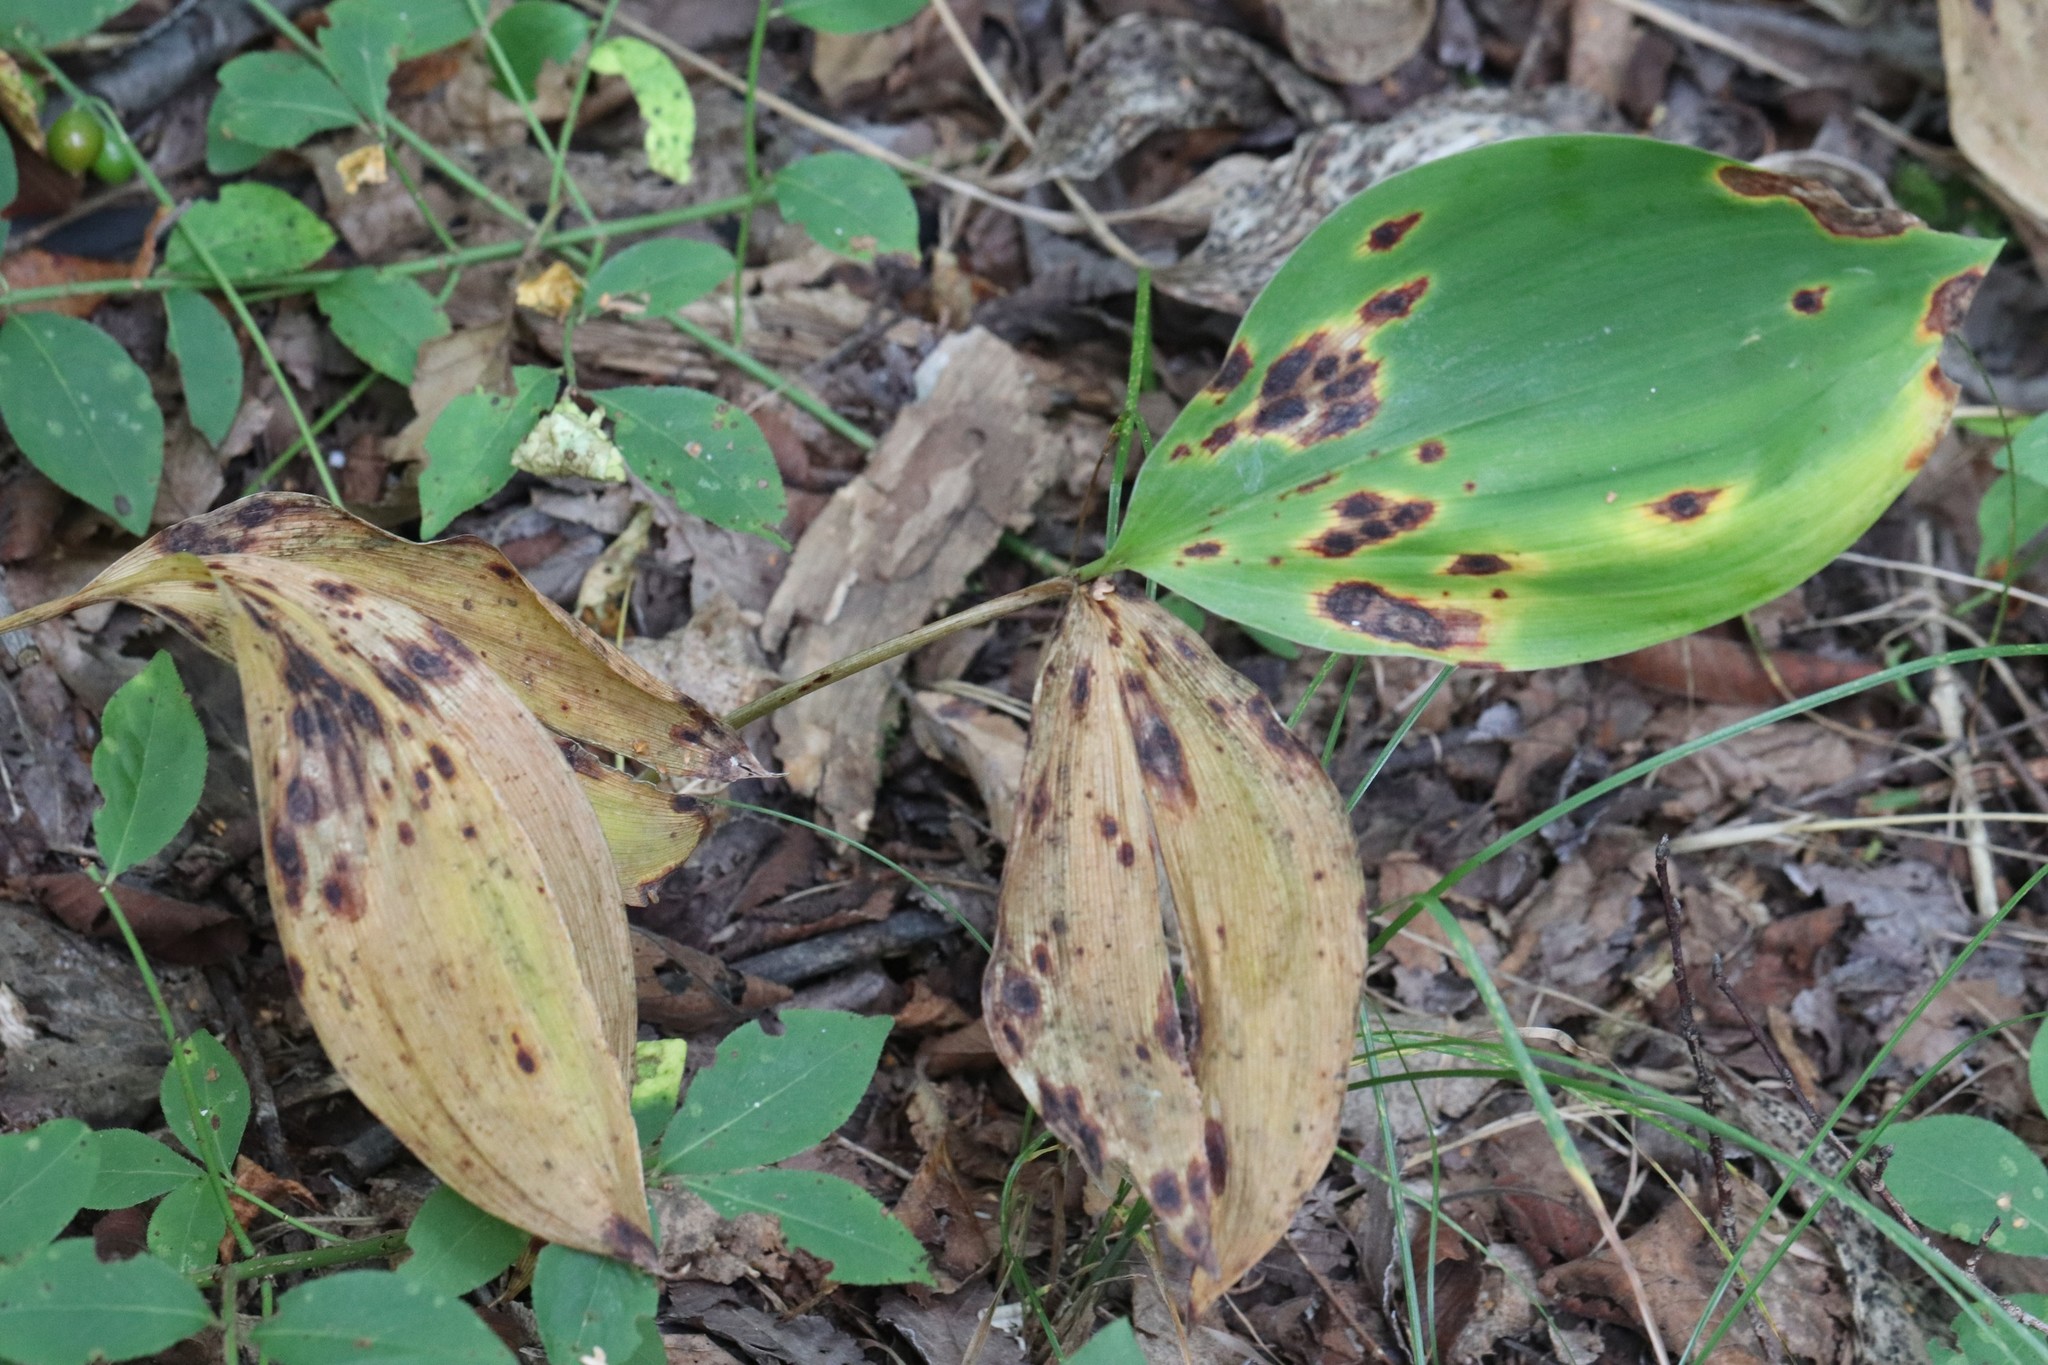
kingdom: Plantae
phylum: Tracheophyta
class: Liliopsida
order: Asparagales
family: Asparagaceae
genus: Convallaria
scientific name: Convallaria keiskei
